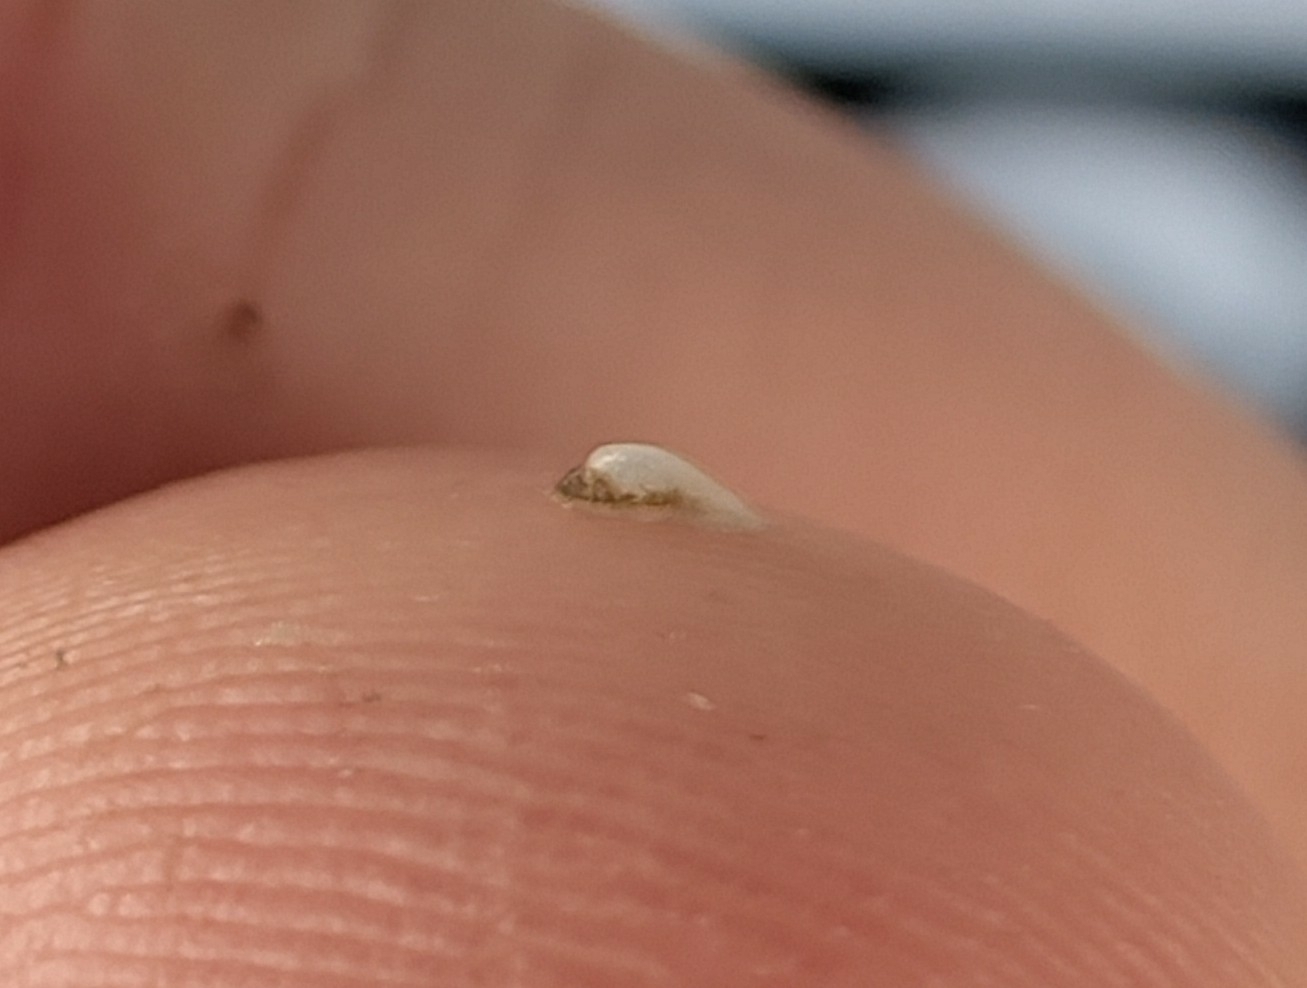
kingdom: Animalia
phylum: Mollusca
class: Gastropoda
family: Planorbidae
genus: Ferrissia
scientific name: Ferrissia californica
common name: Fragile ancylid
